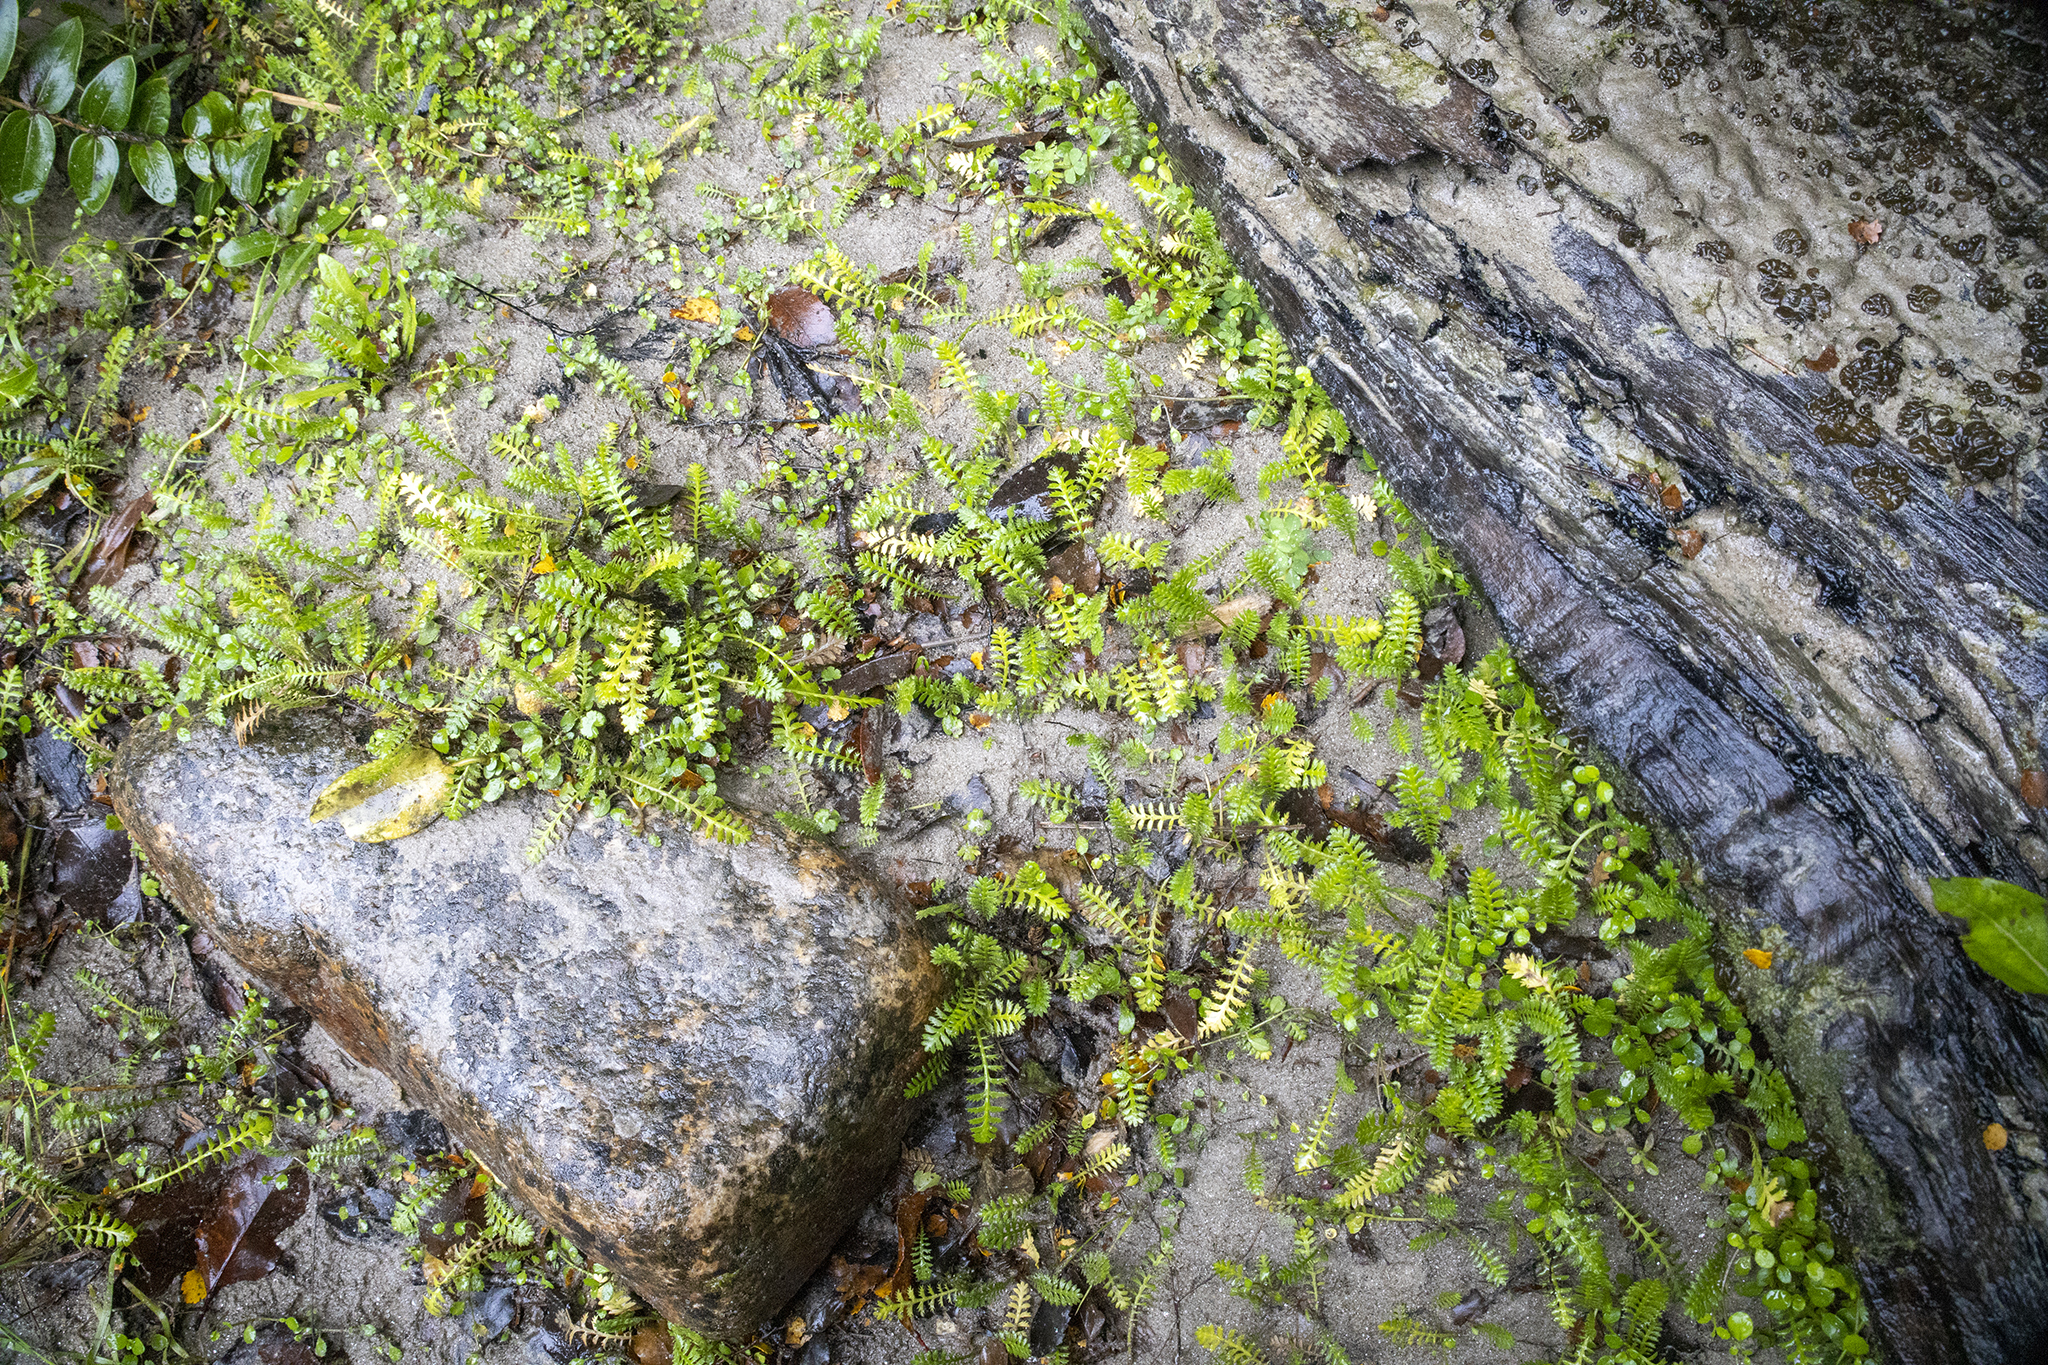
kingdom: Plantae
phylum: Tracheophyta
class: Magnoliopsida
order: Asterales
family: Asteraceae
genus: Leptinella
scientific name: Leptinella squalida
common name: New zealand brass-buttons
